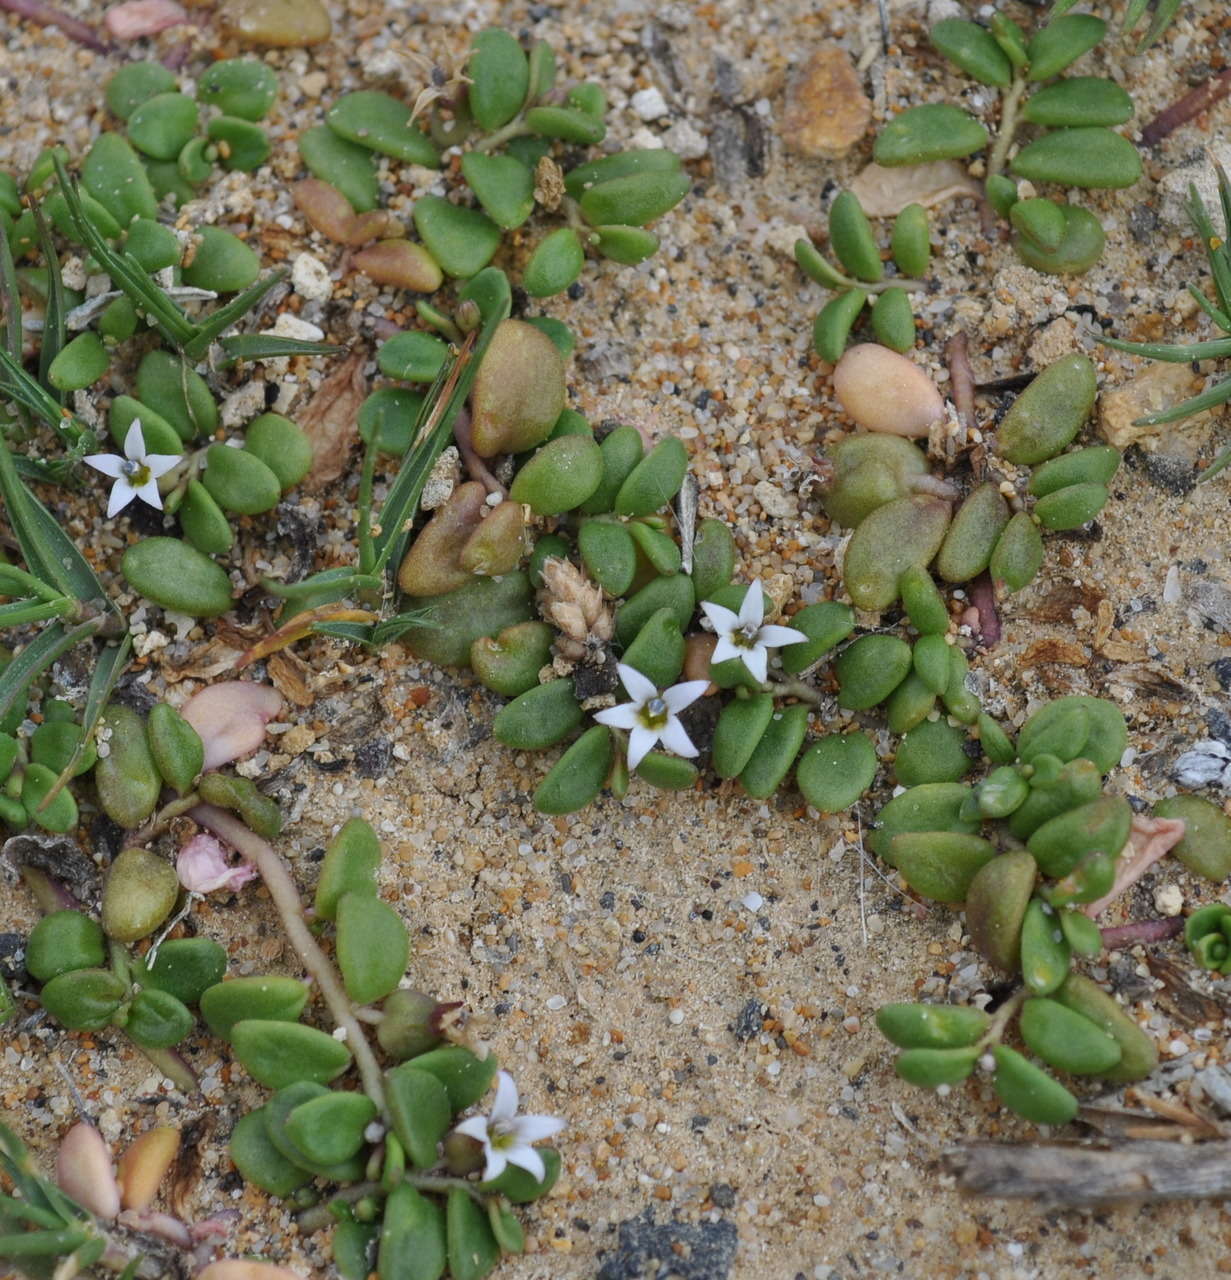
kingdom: Plantae
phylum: Tracheophyta
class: Magnoliopsida
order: Asterales
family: Campanulaceae
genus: Lobelia
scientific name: Lobelia irrigua
